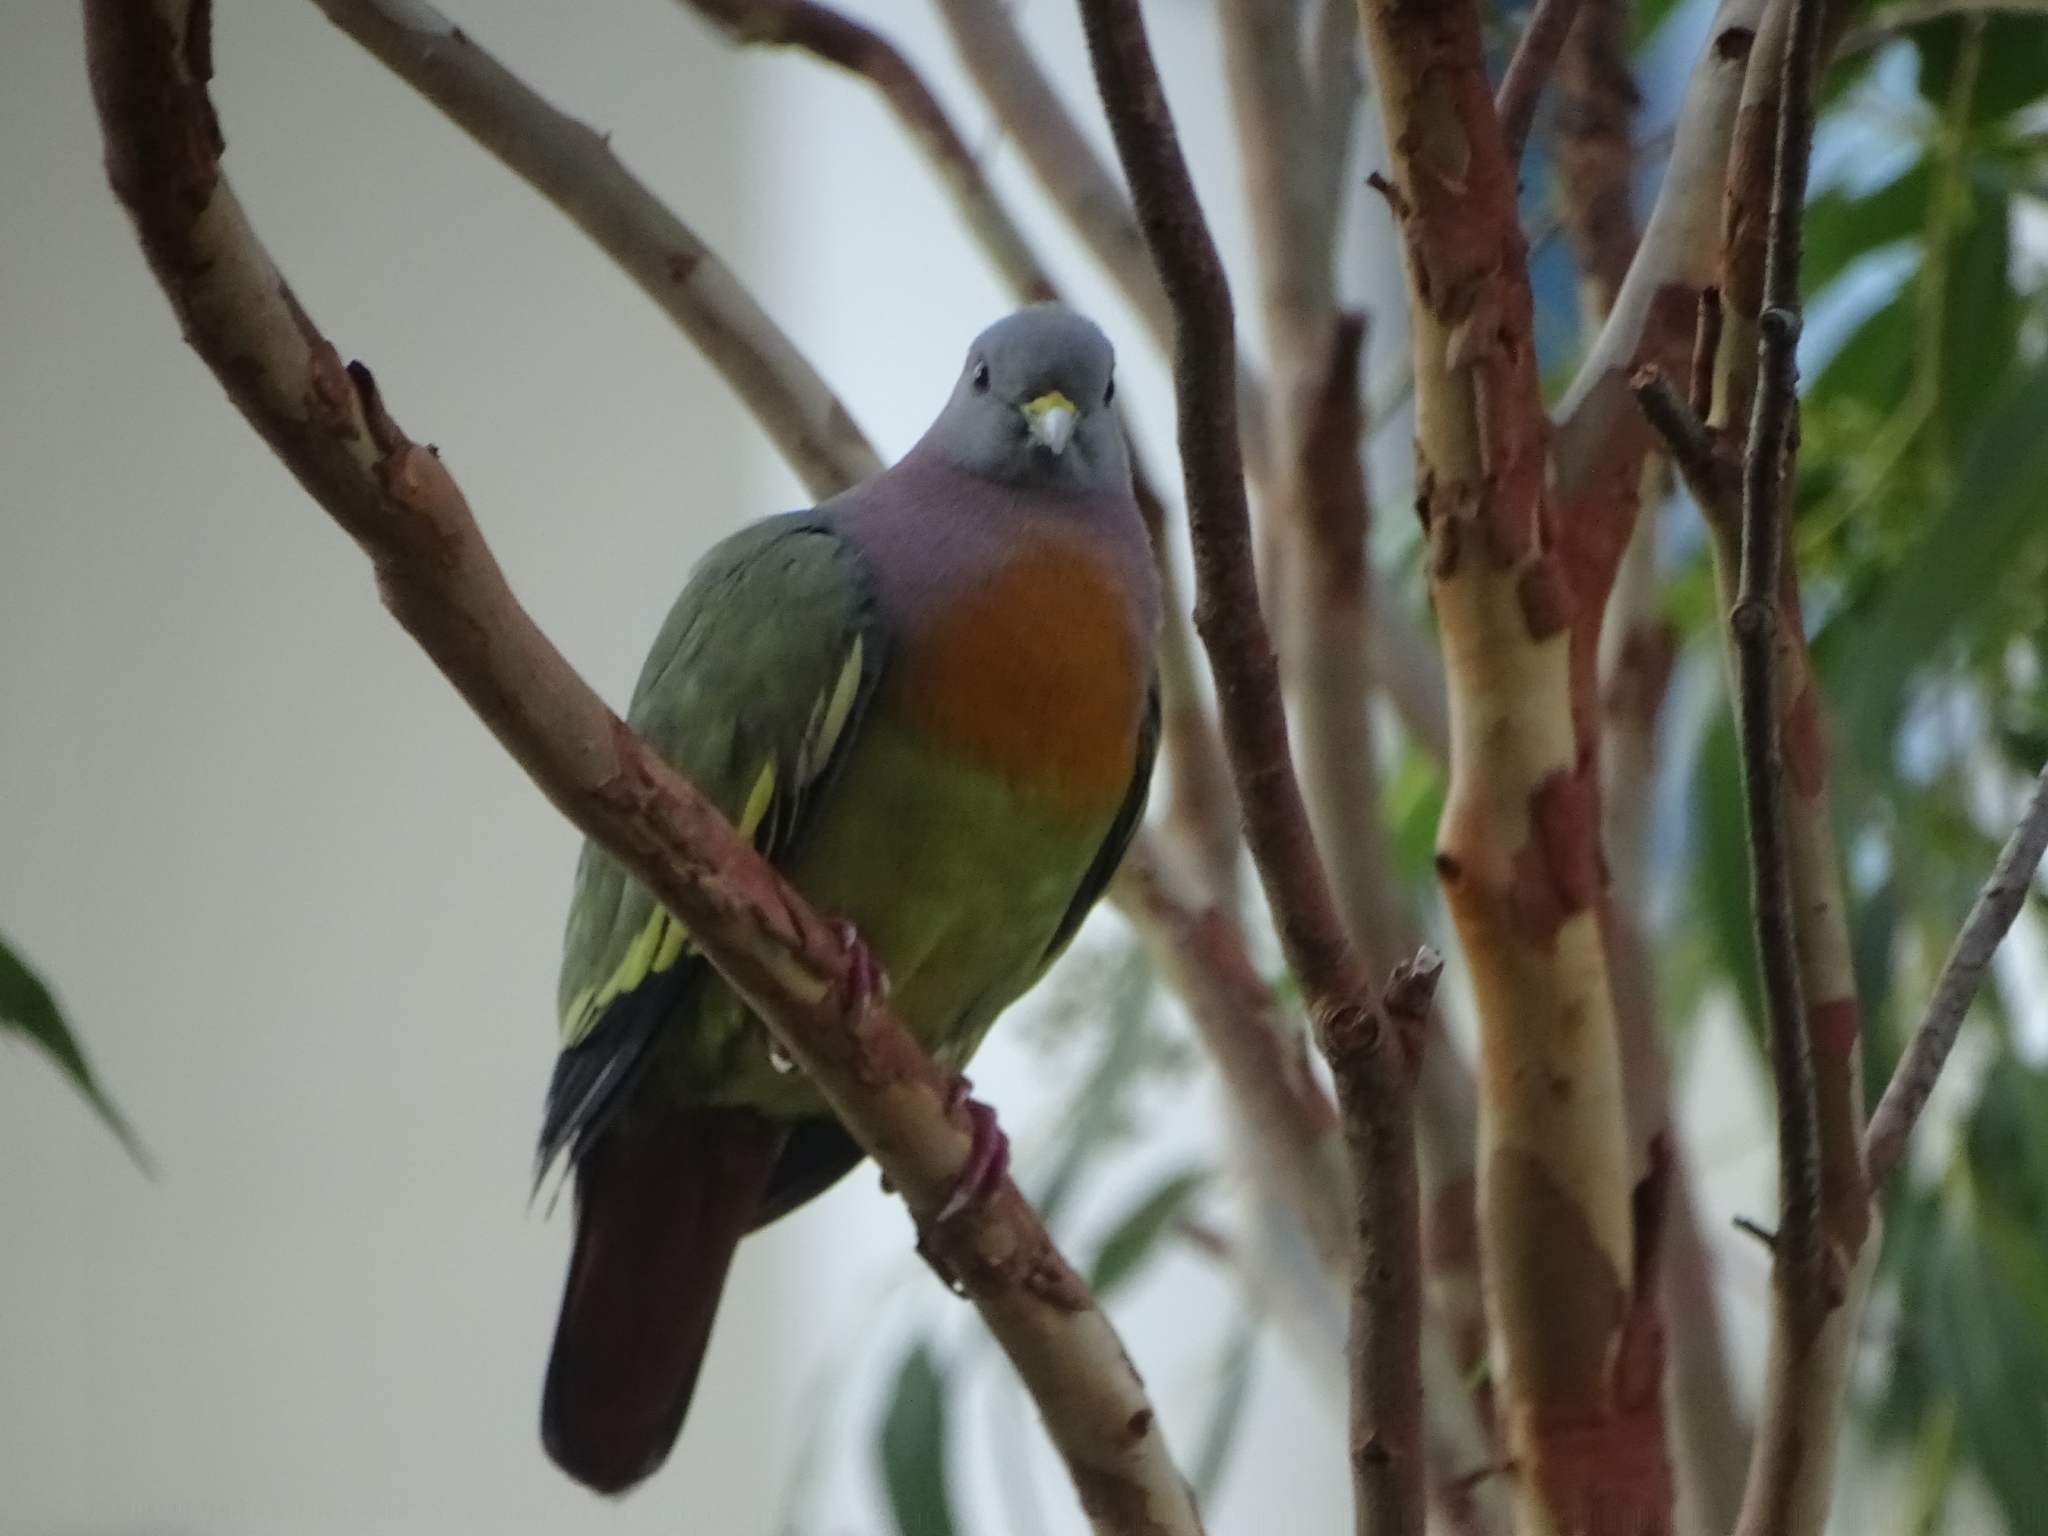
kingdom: Animalia
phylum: Chordata
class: Aves
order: Columbiformes
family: Columbidae
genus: Treron
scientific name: Treron vernans
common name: Pink-necked green pigeon
